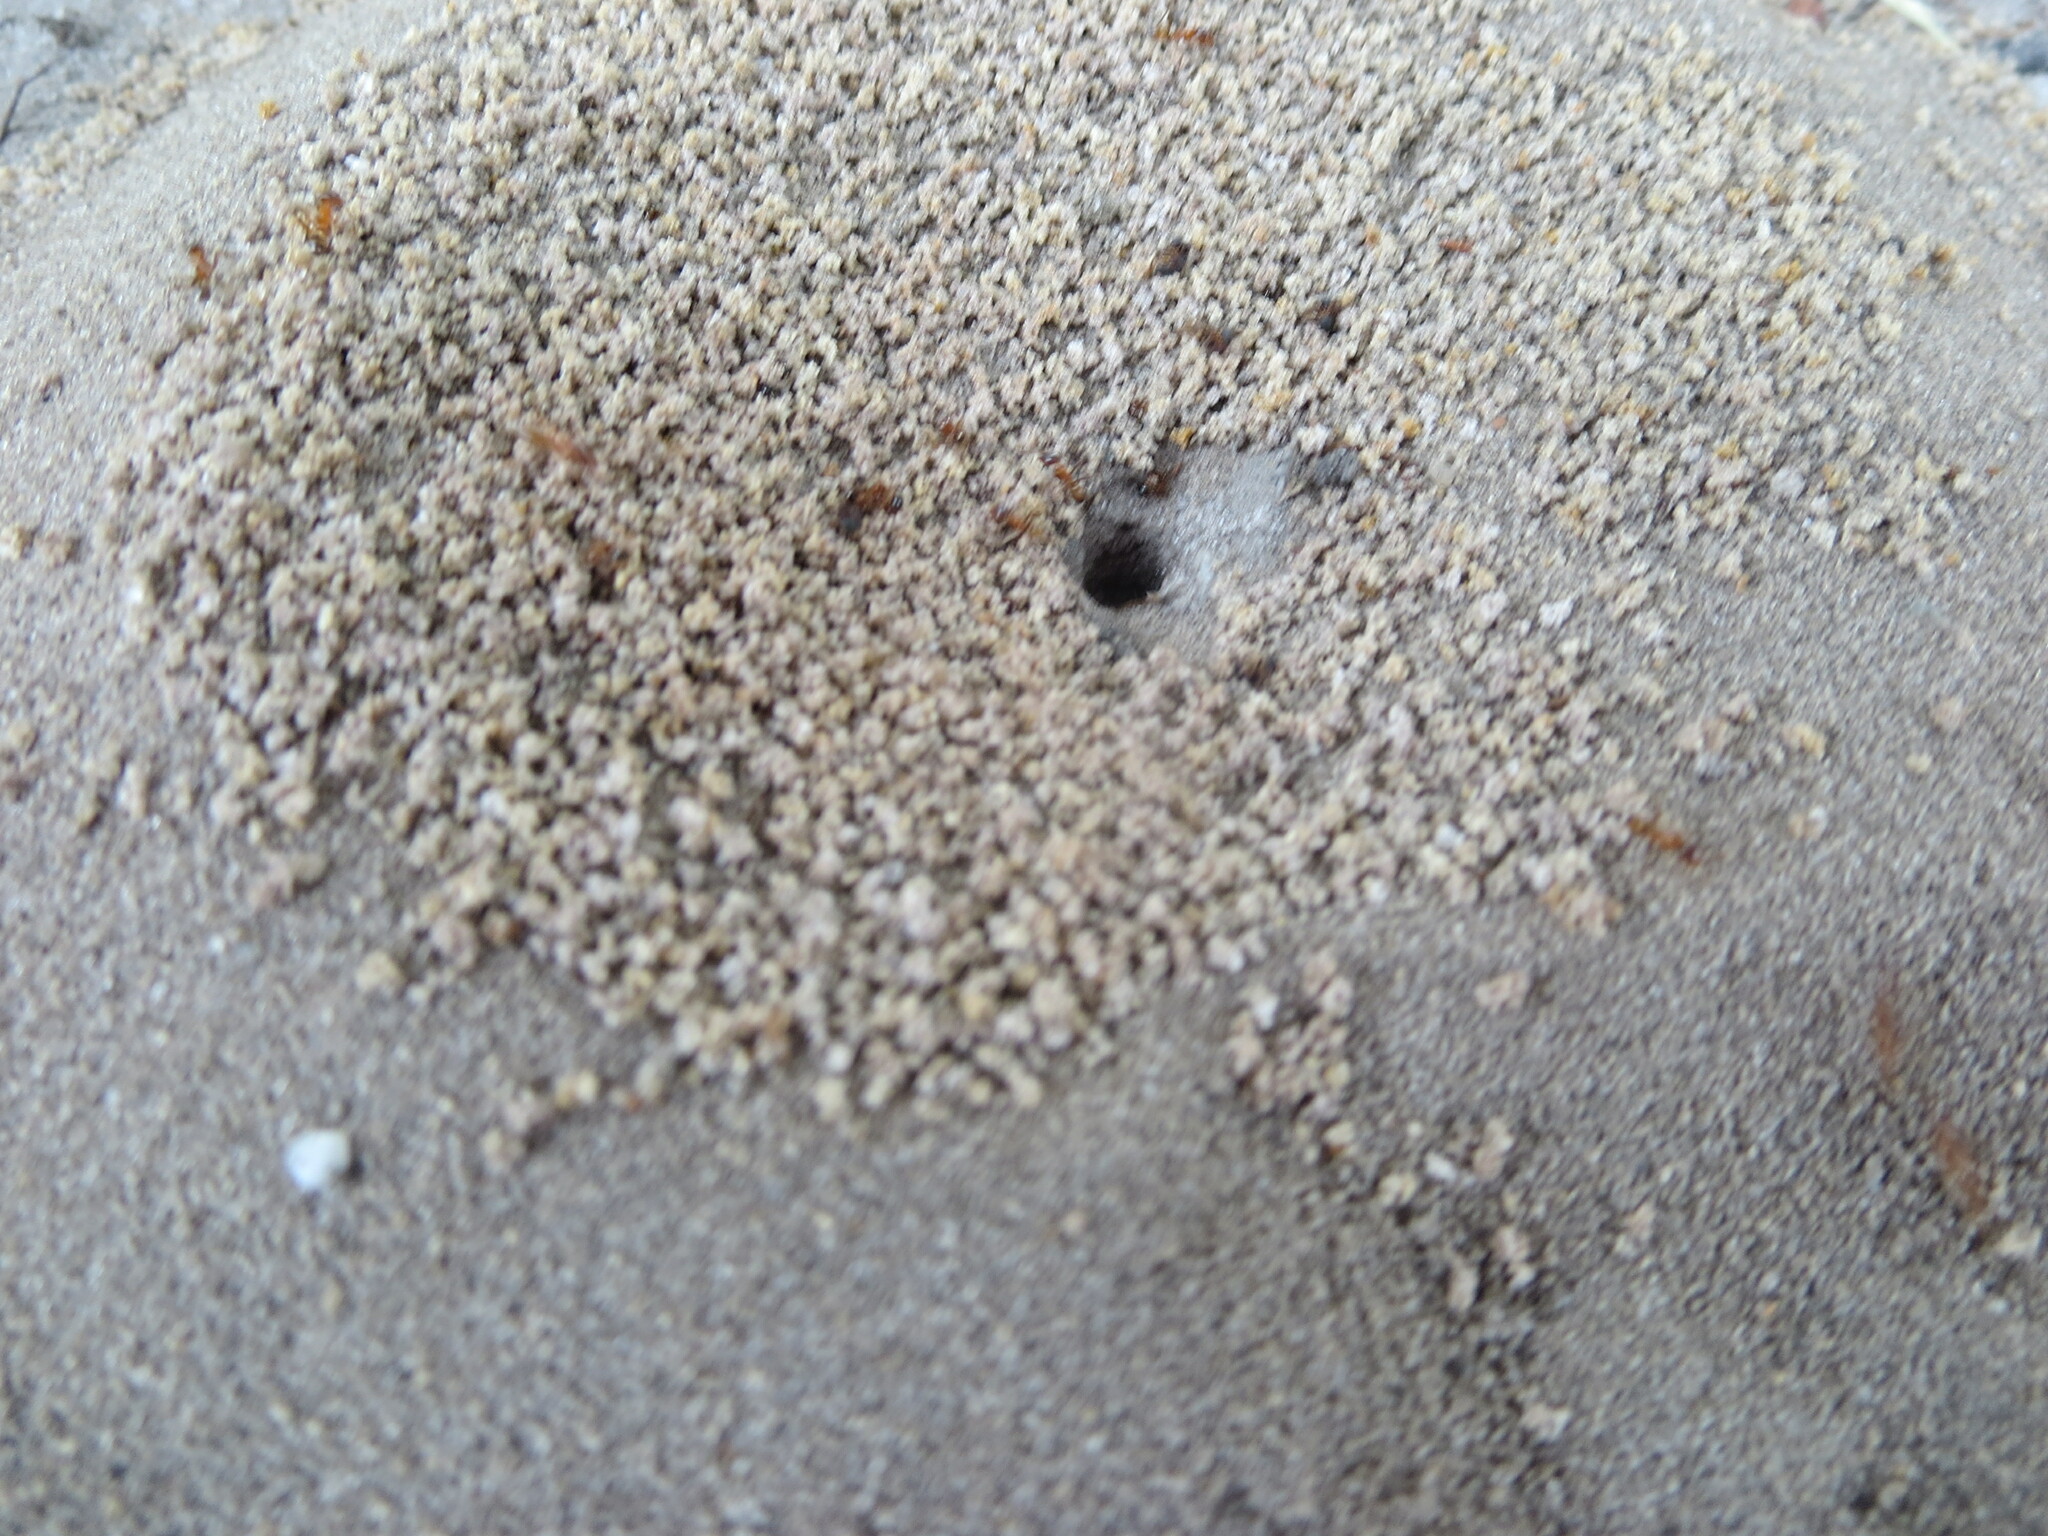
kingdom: Animalia
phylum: Arthropoda
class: Insecta
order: Hymenoptera
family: Formicidae
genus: Dorymyrmex
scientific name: Dorymyrmex bureni
